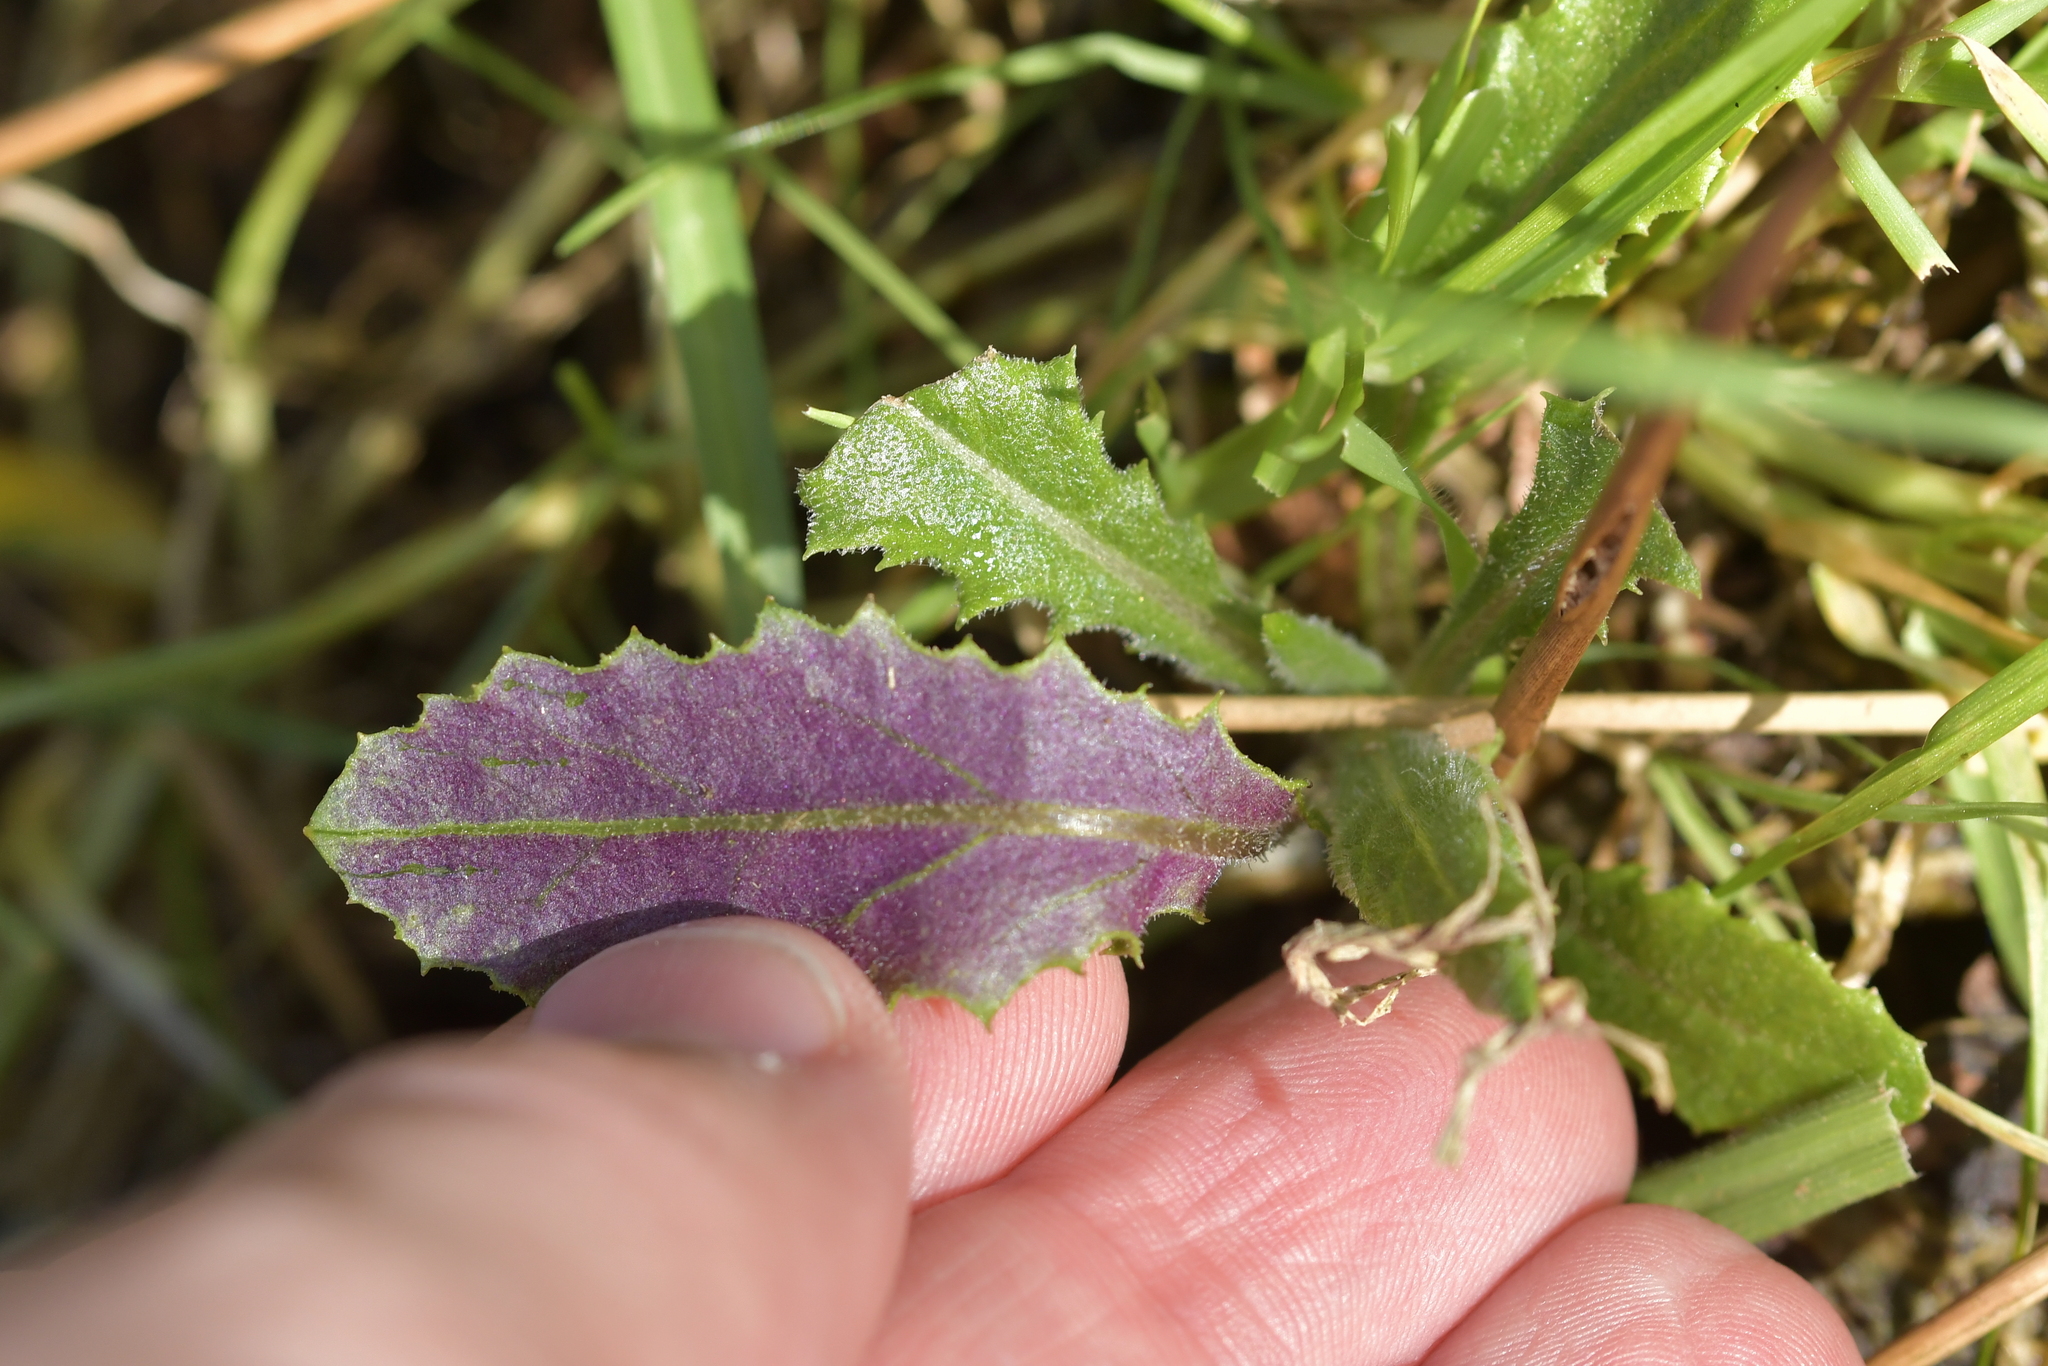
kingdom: Plantae
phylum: Tracheophyta
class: Magnoliopsida
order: Asterales
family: Asteraceae
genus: Senecio
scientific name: Senecio minimus
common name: Toothed fireweed
